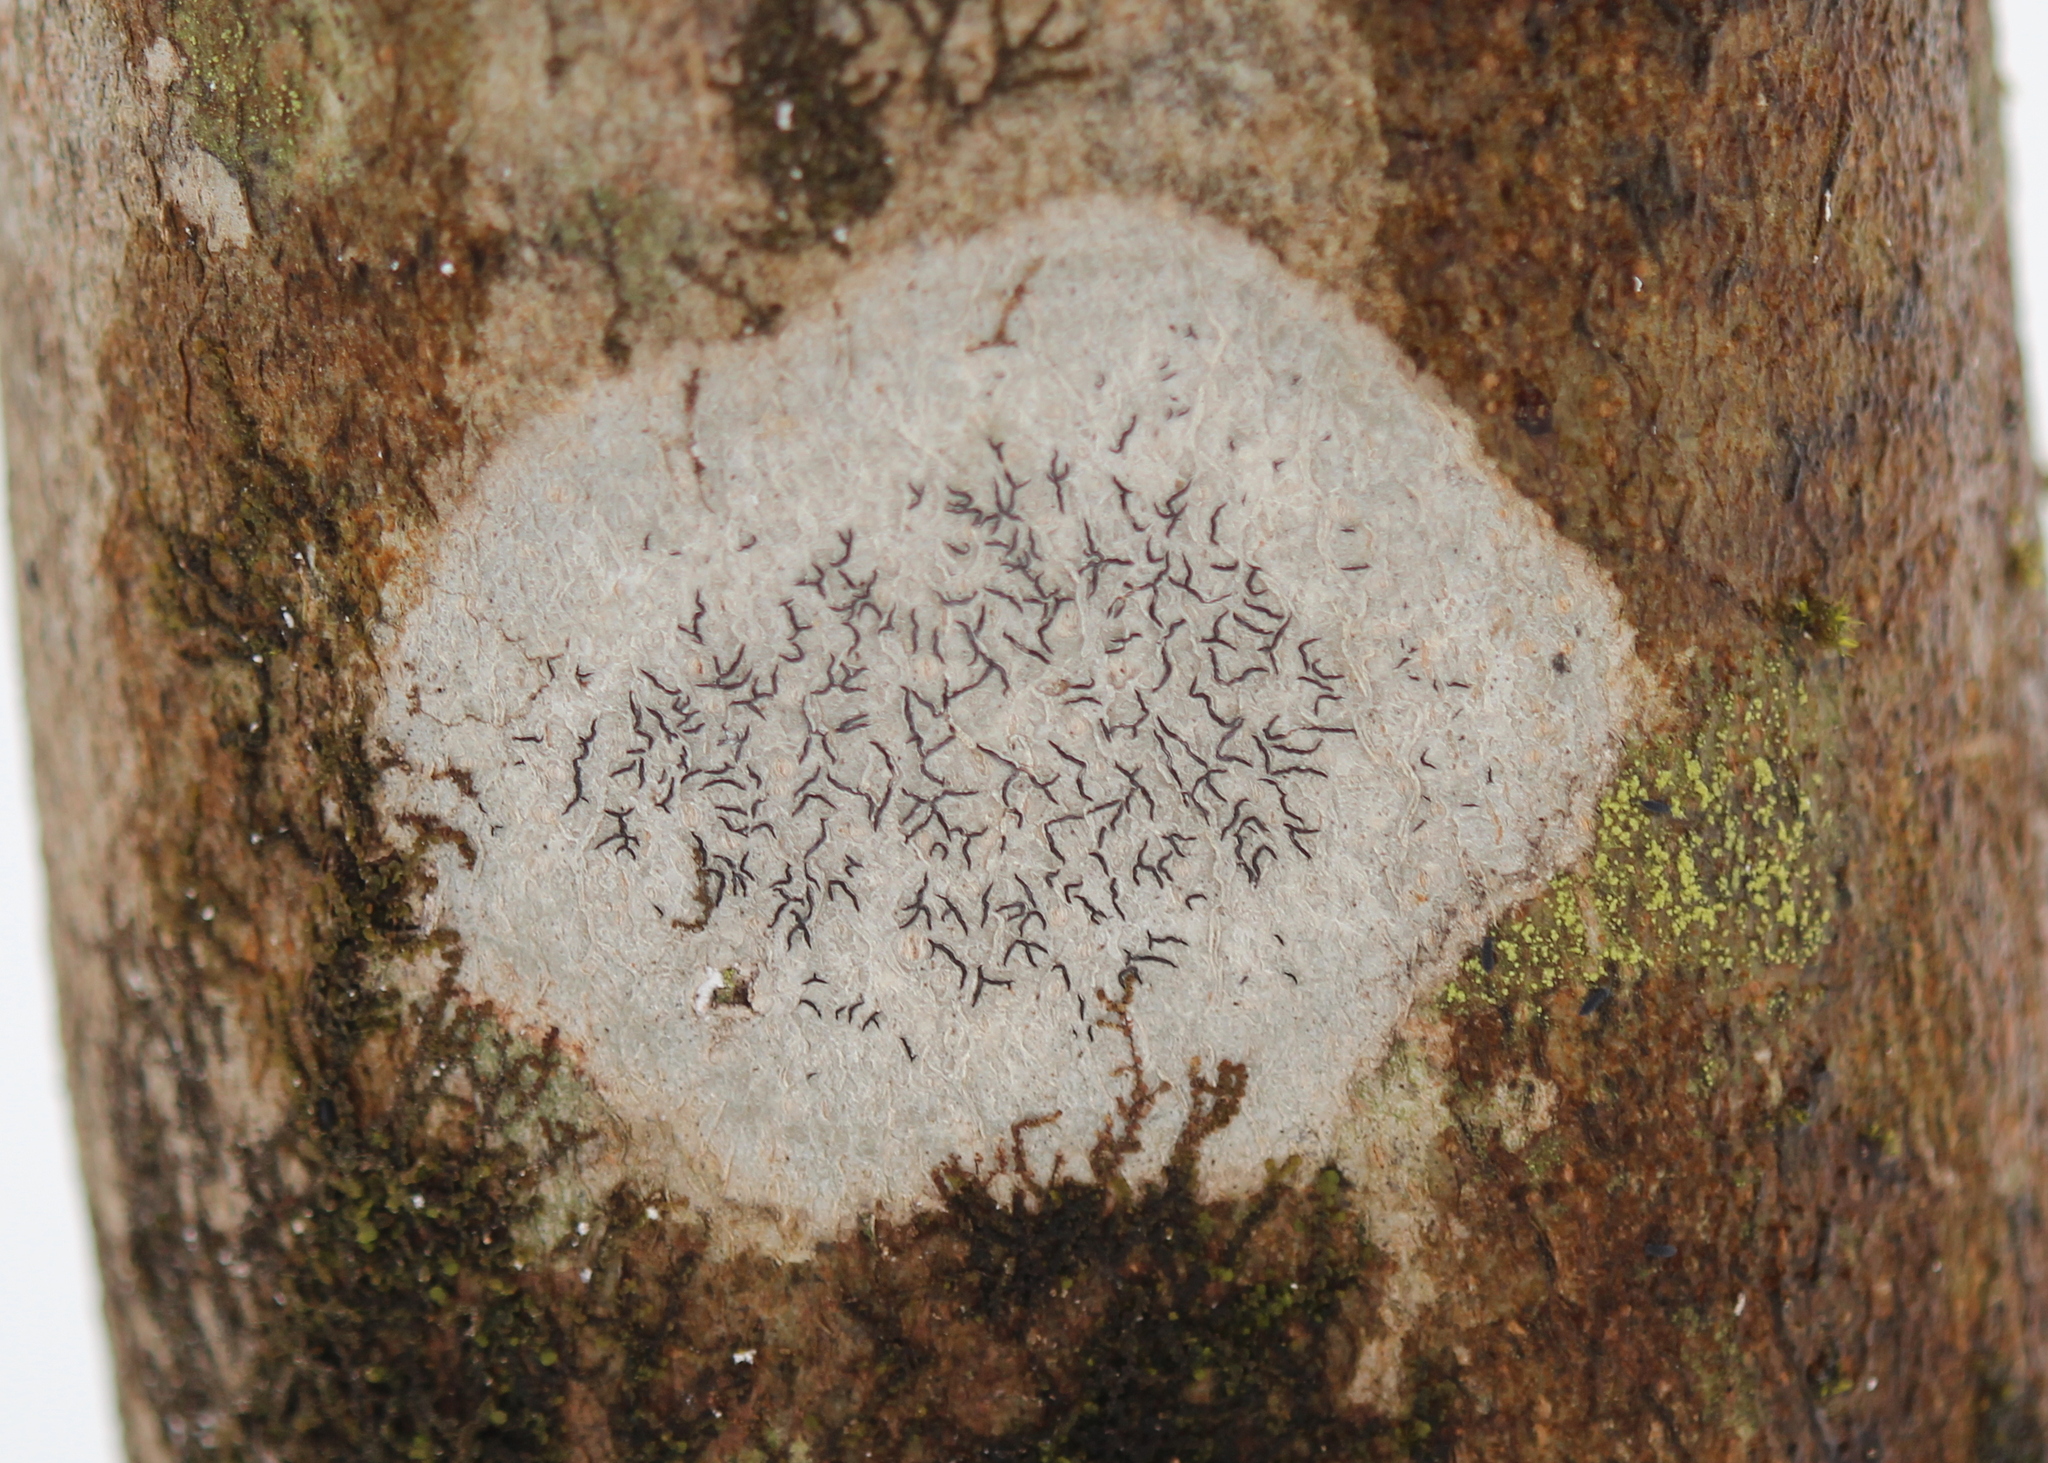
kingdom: Fungi
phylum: Ascomycota
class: Lecanoromycetes
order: Ostropales
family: Graphidaceae
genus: Graphis
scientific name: Graphis scripta
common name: Script lichen
